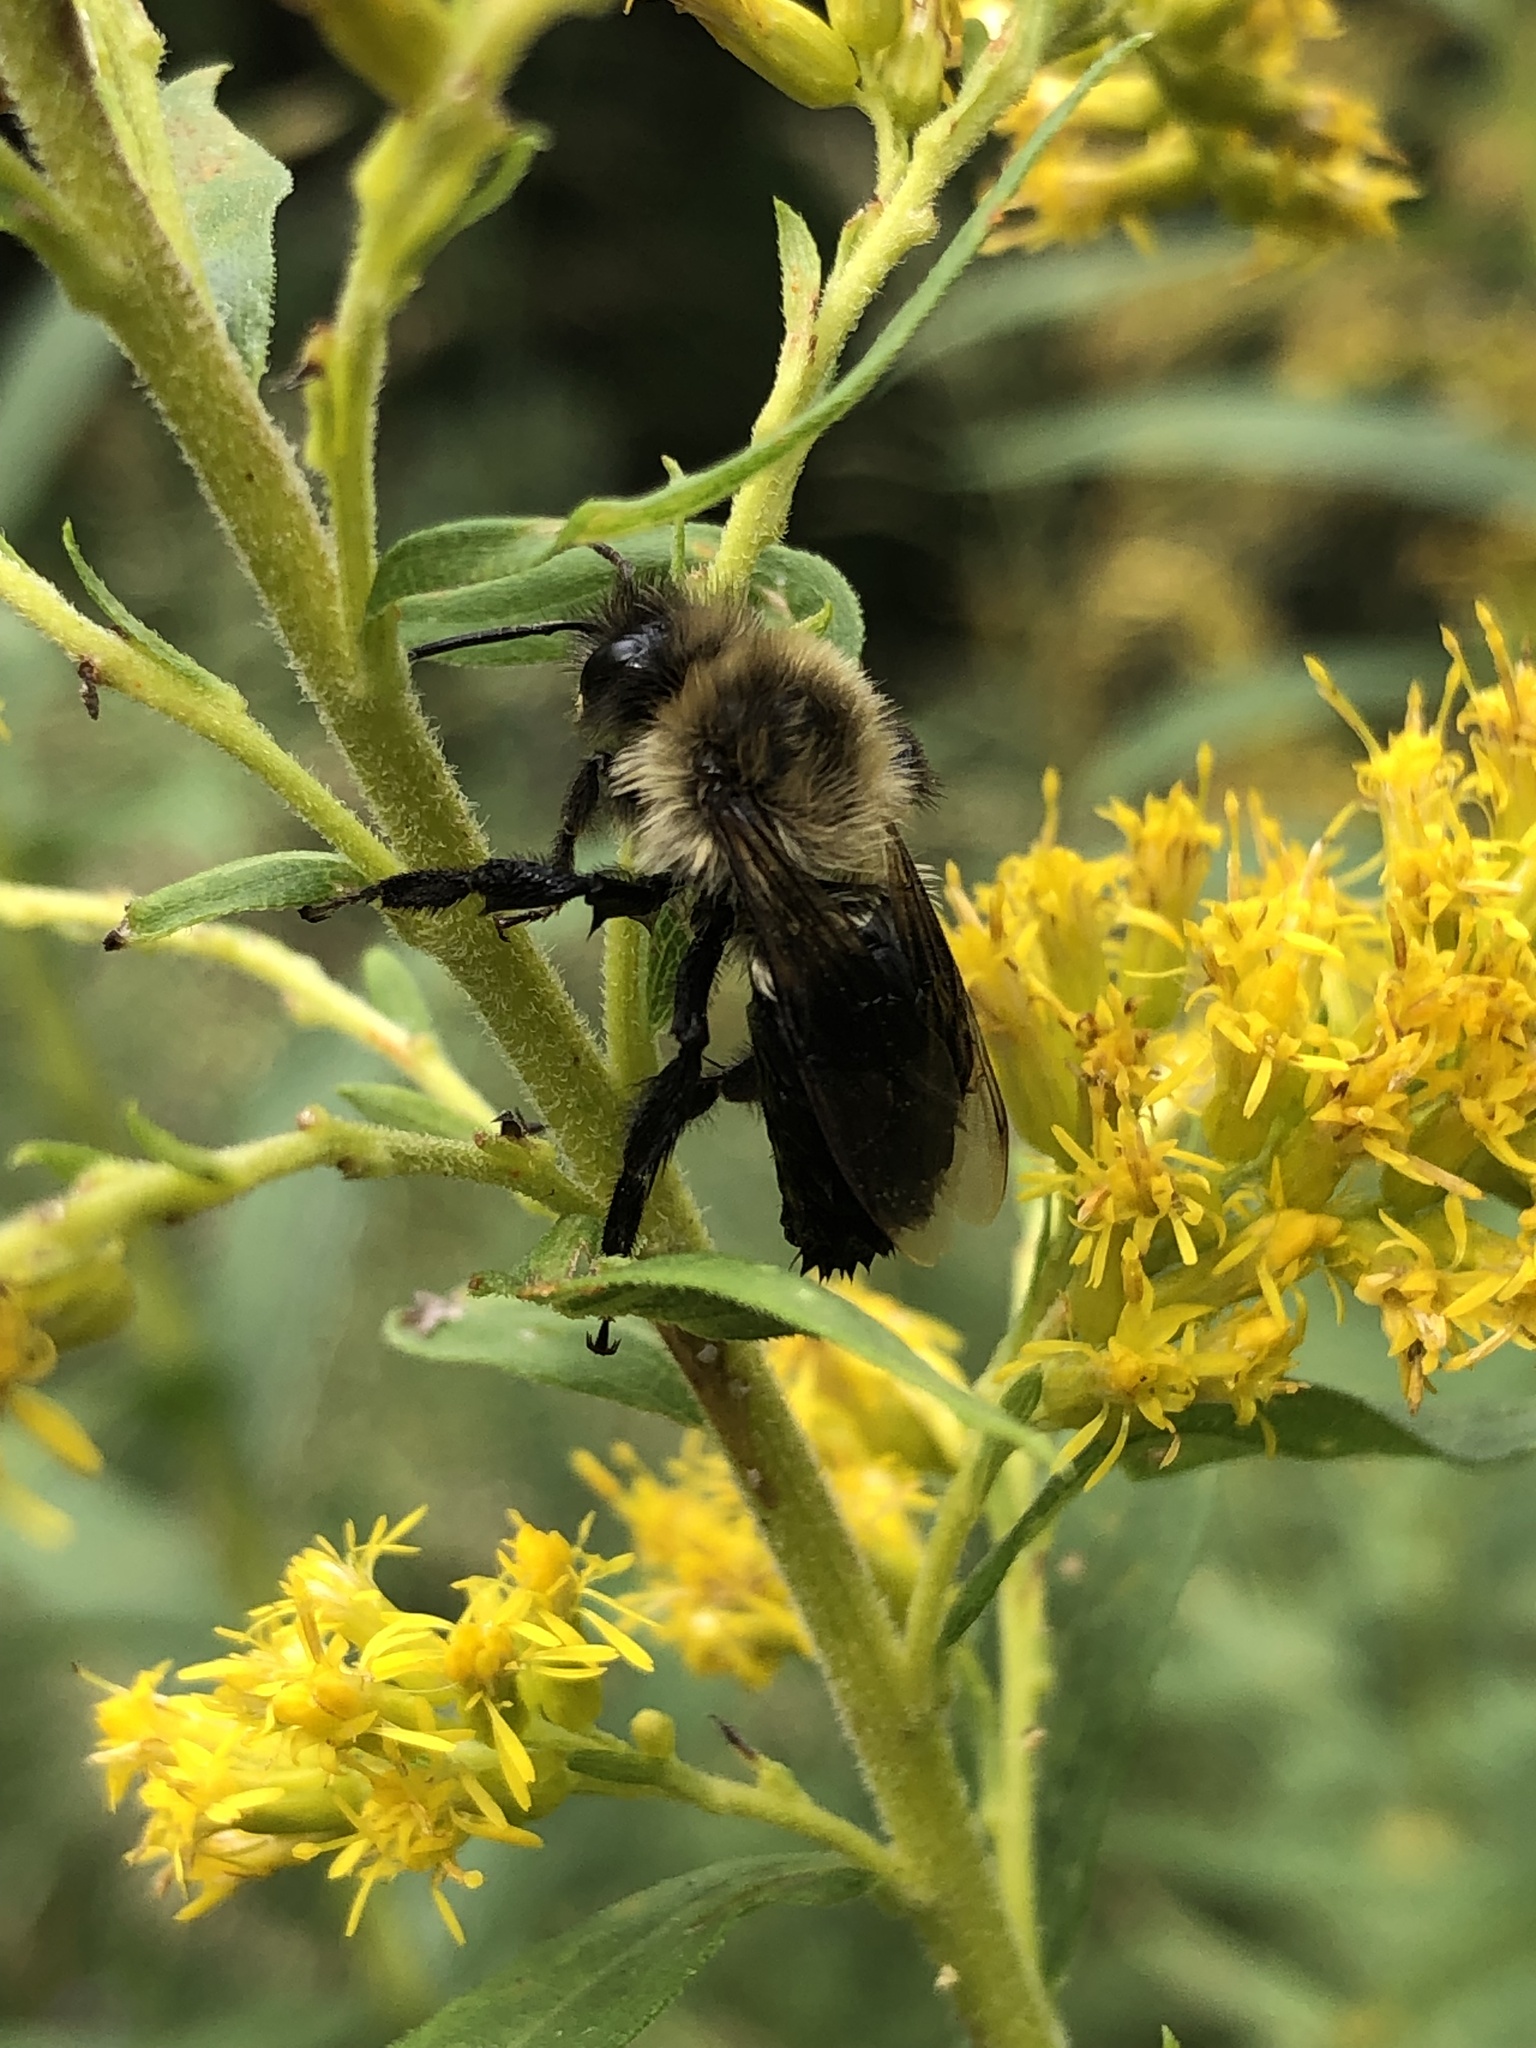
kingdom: Animalia
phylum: Arthropoda
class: Insecta
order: Hymenoptera
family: Apidae
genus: Bombus
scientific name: Bombus impatiens
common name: Common eastern bumble bee
